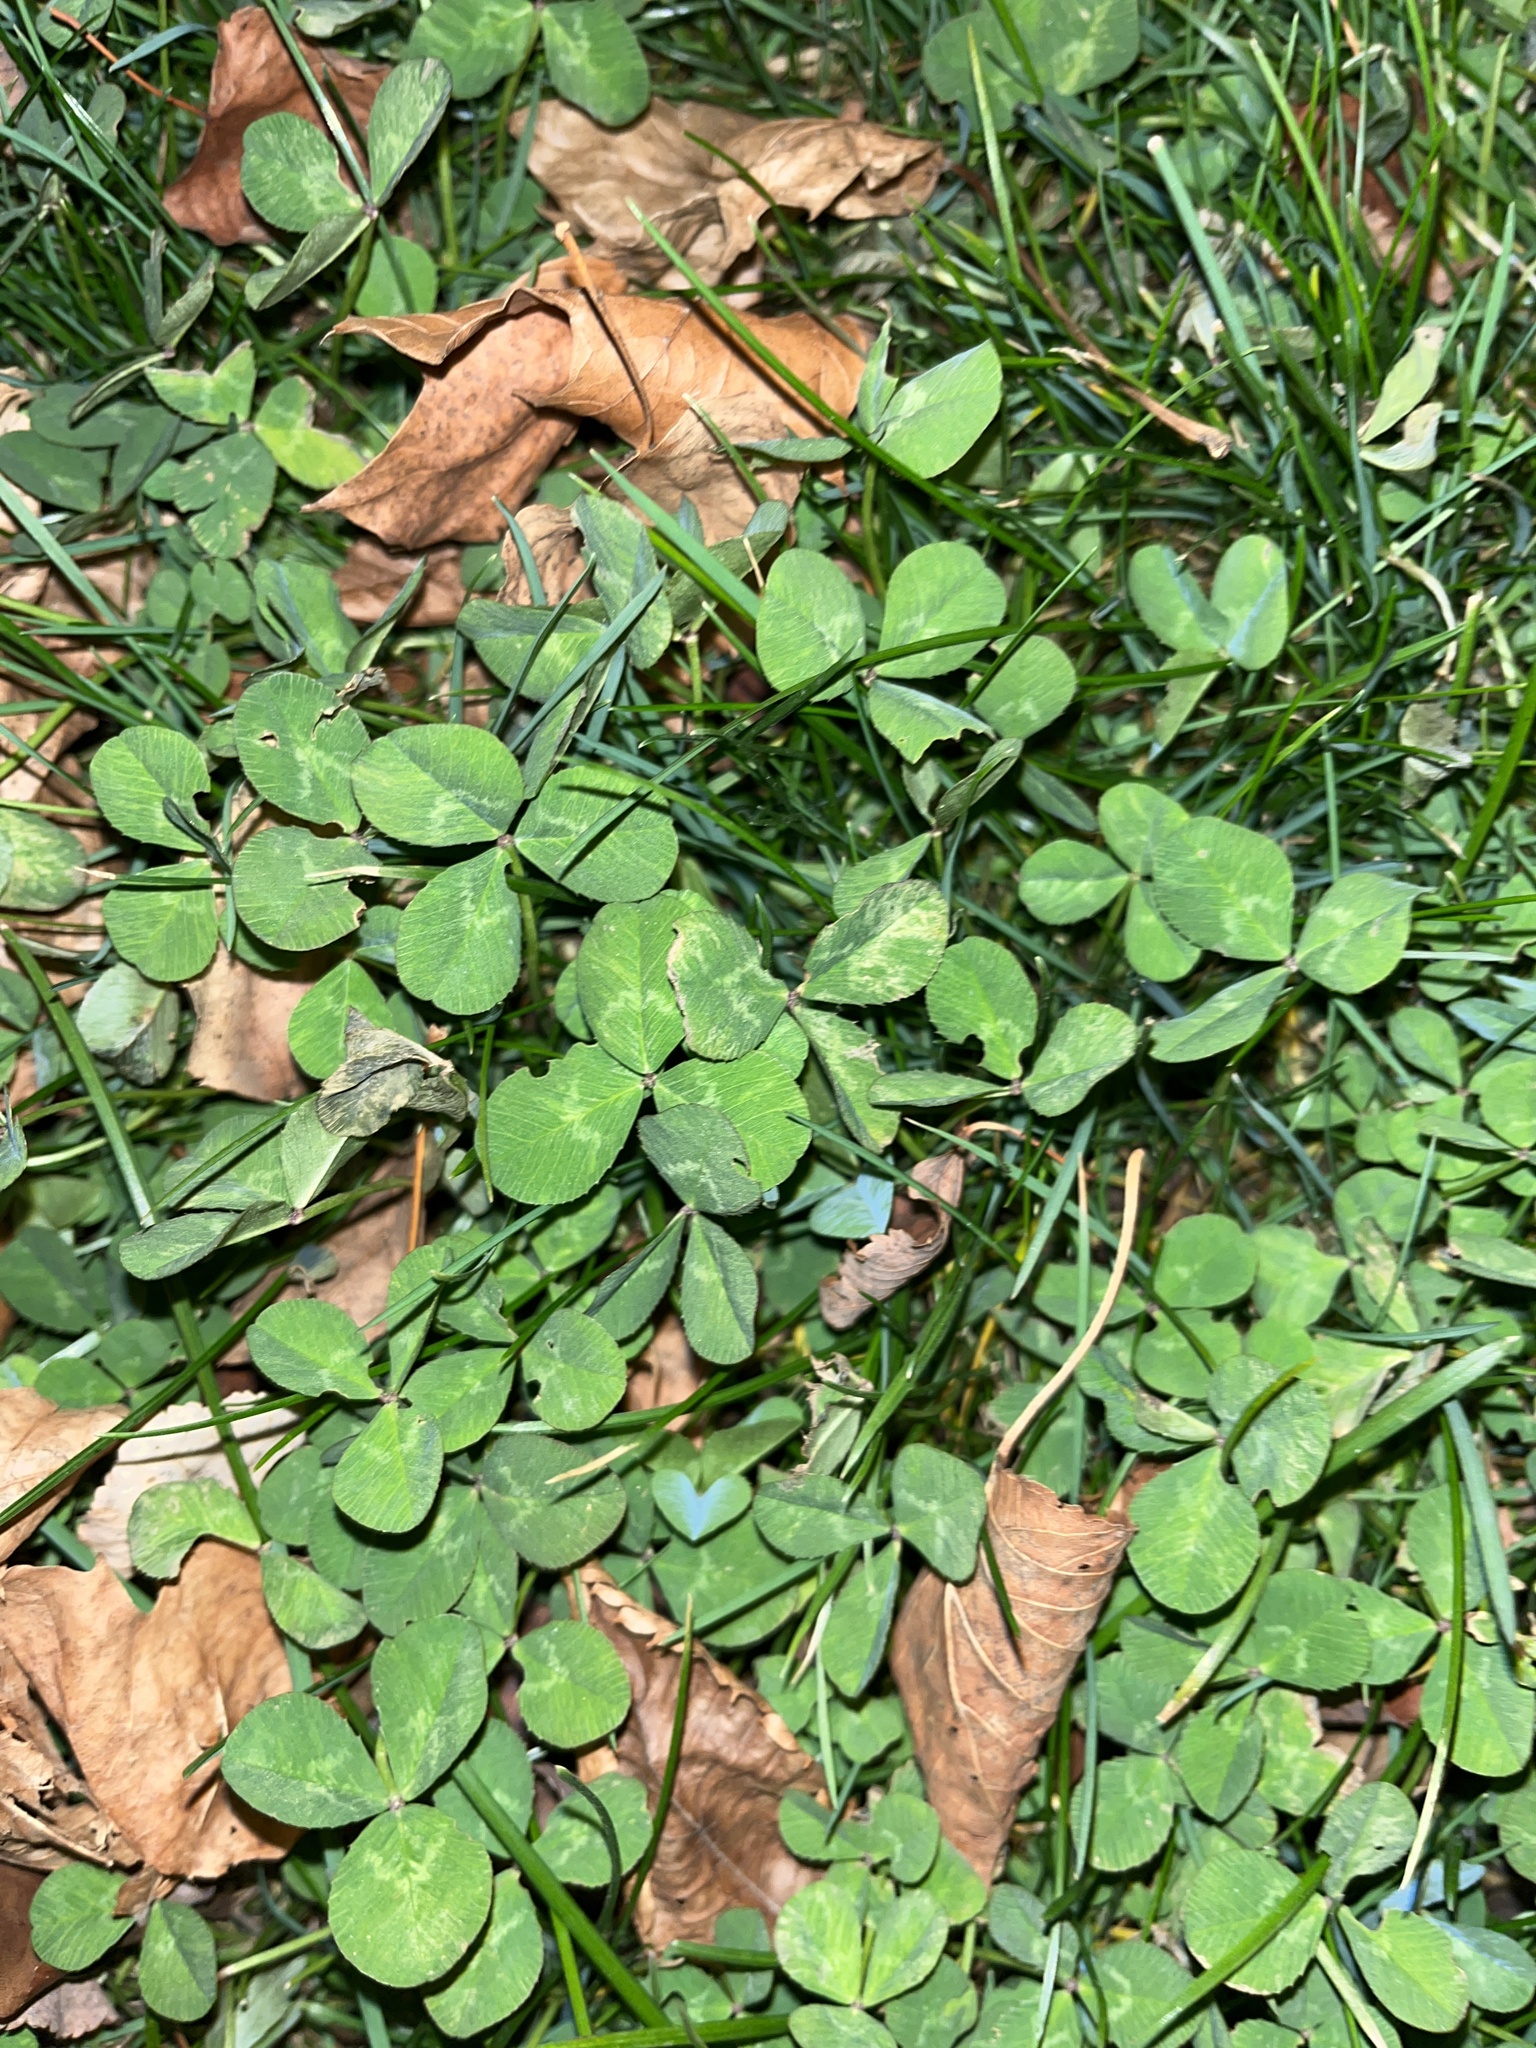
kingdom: Plantae
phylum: Tracheophyta
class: Magnoliopsida
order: Fabales
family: Fabaceae
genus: Trifolium
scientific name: Trifolium repens
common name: White clover
